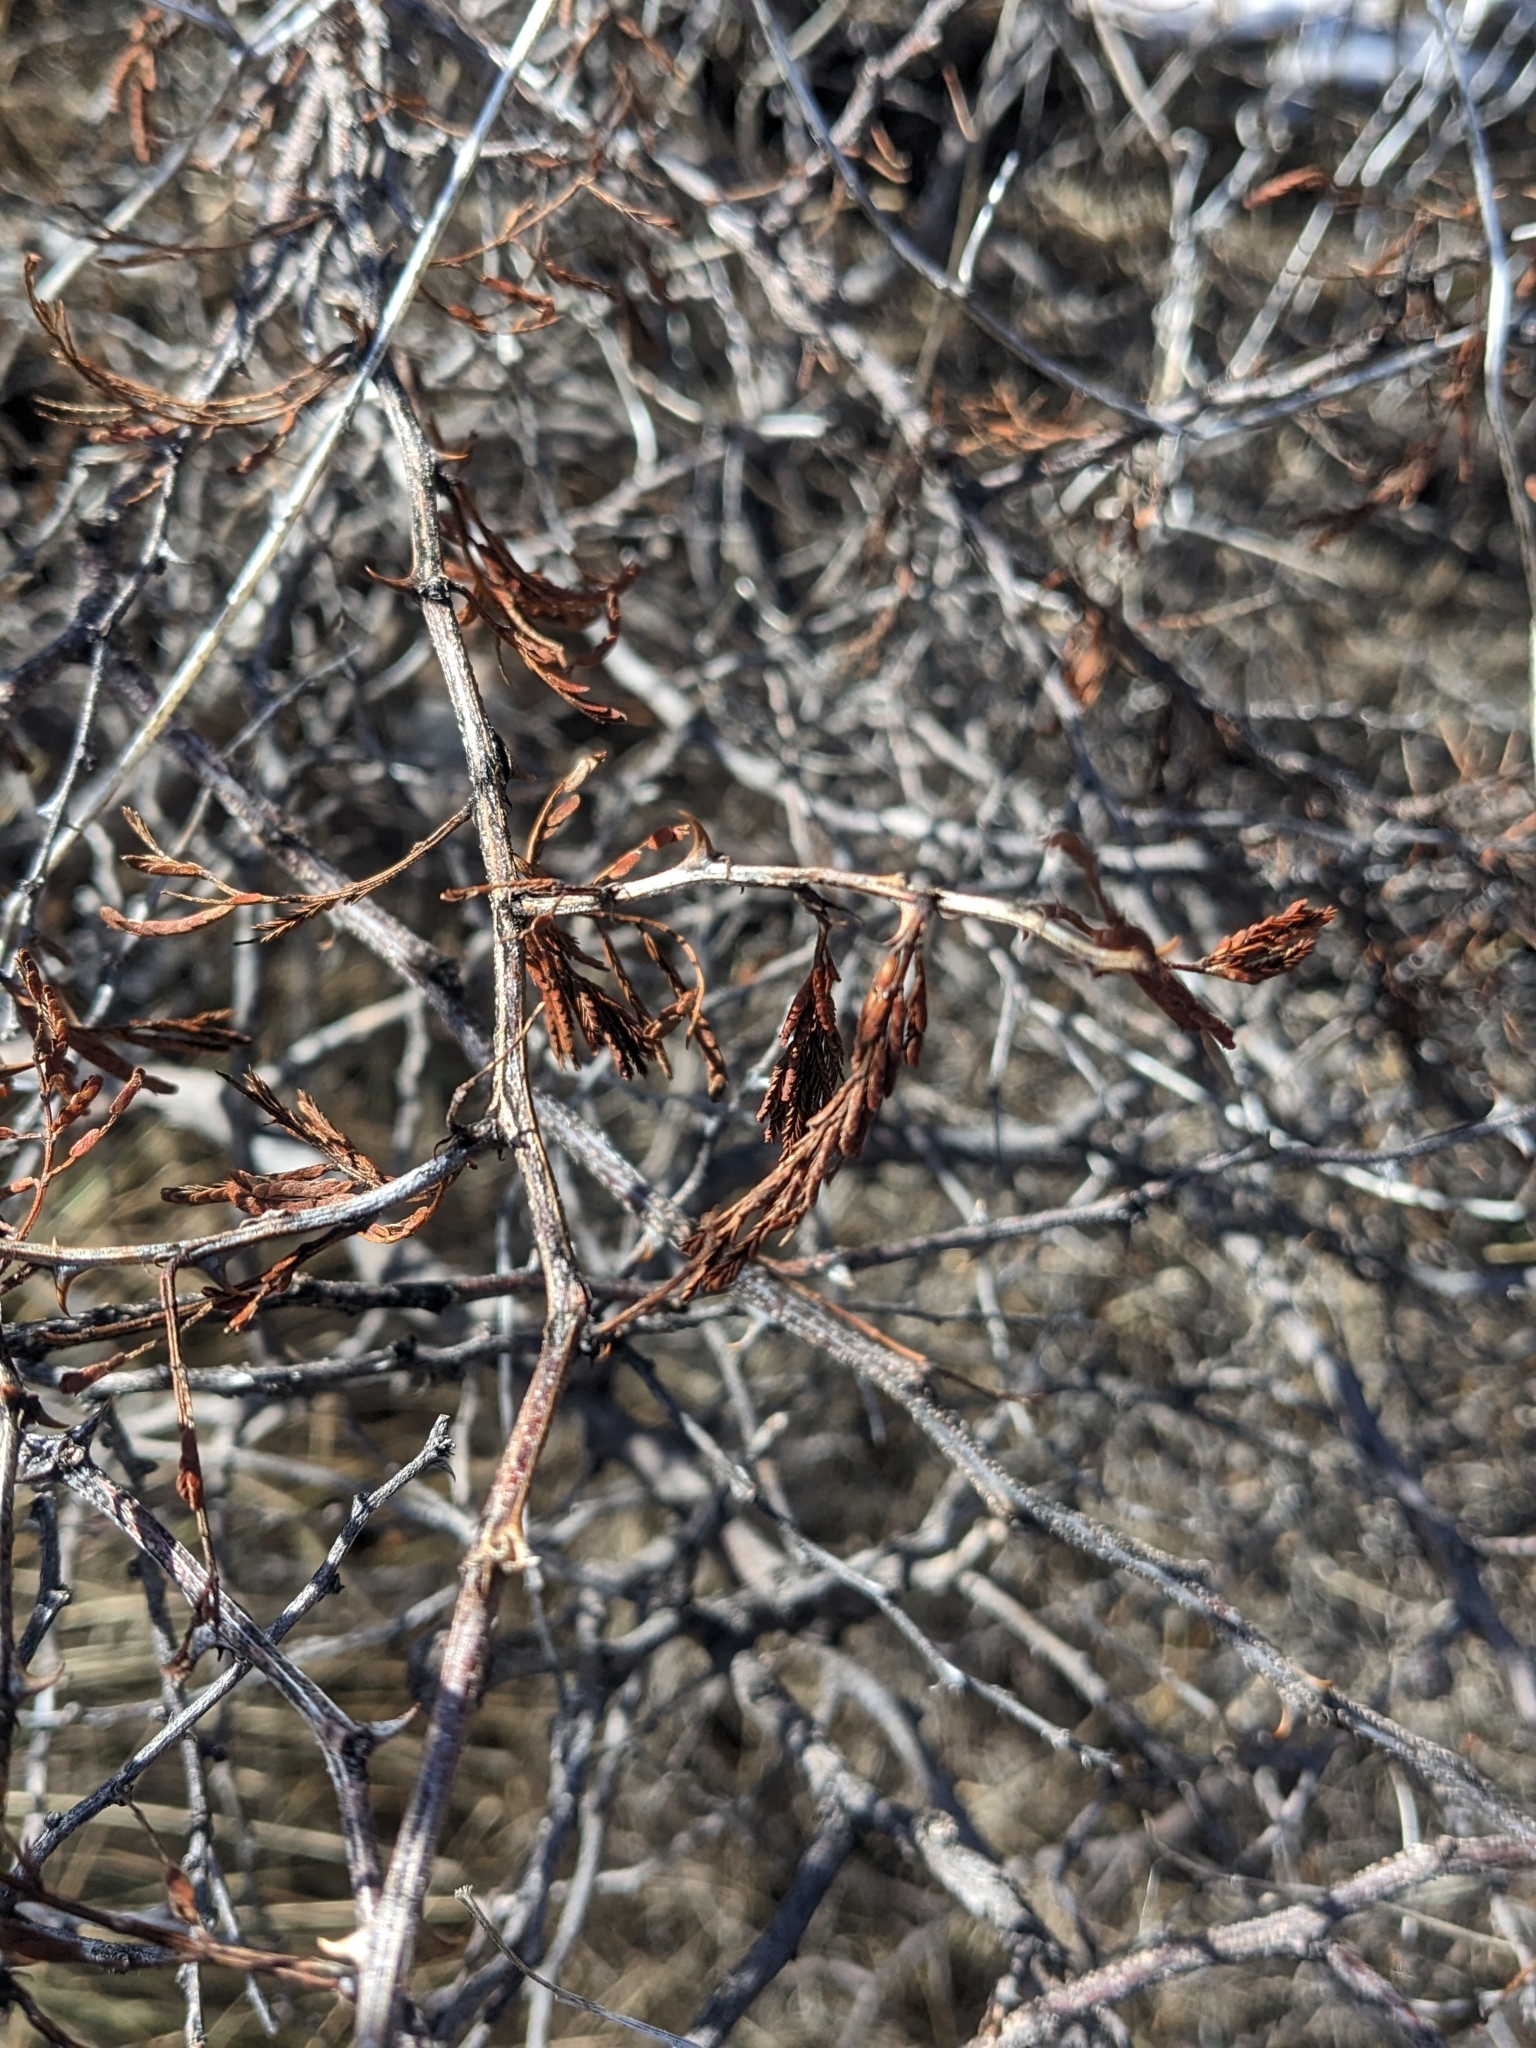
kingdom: Plantae
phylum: Tracheophyta
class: Magnoliopsida
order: Fabales
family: Fabaceae
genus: Mimosa
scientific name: Mimosa biuncifera
